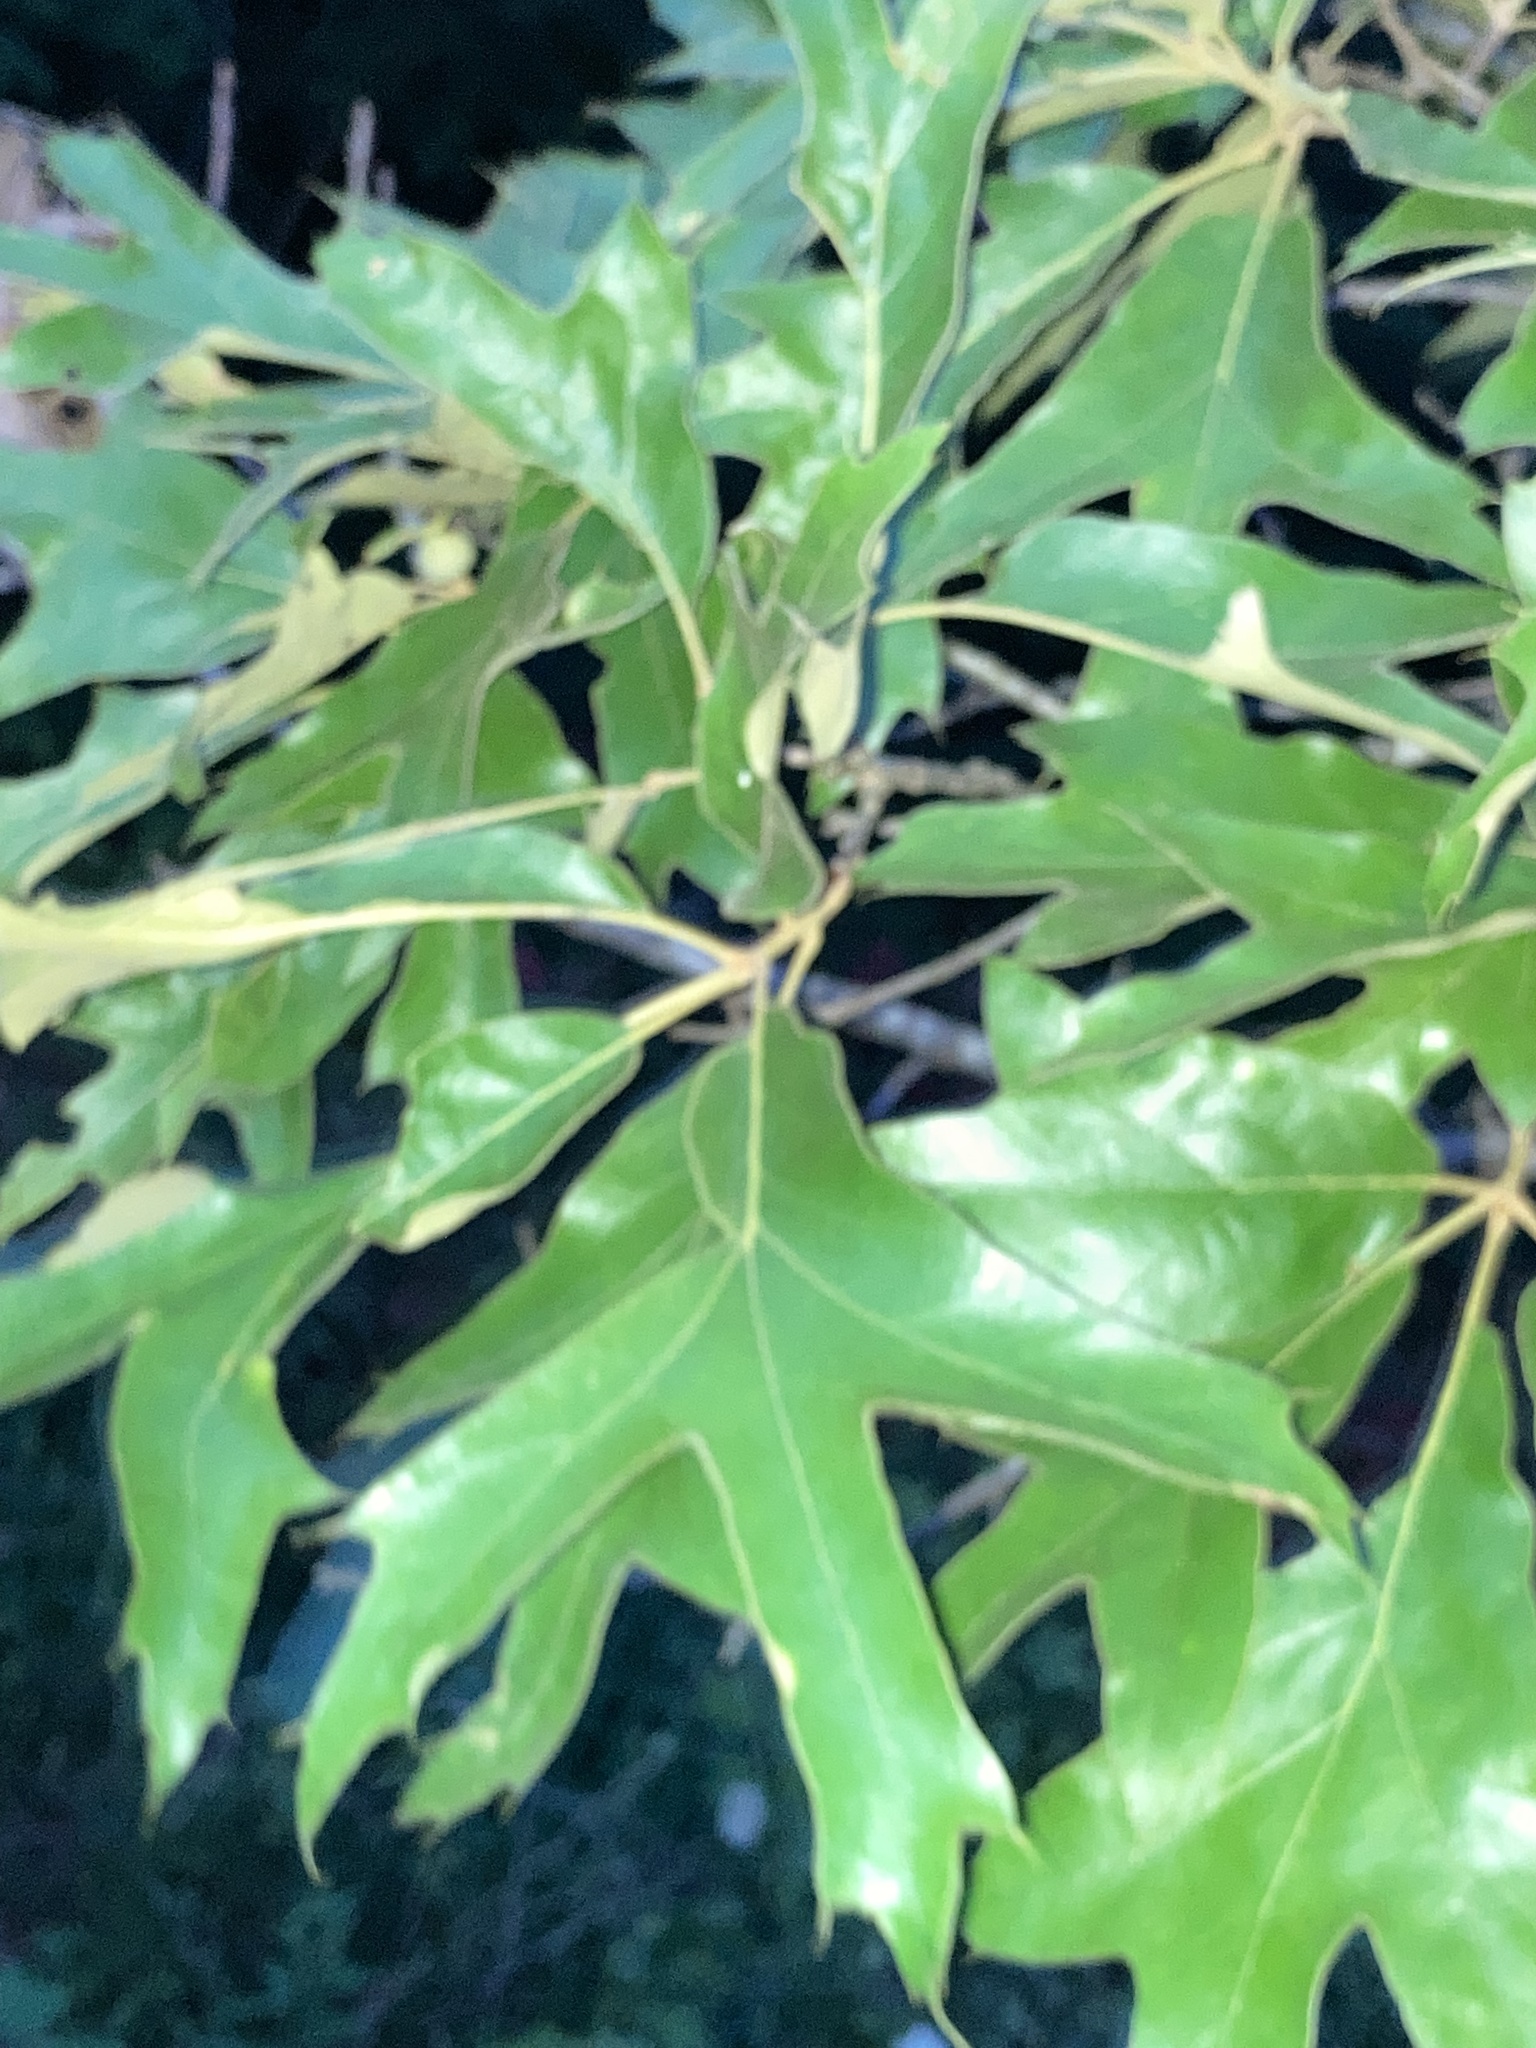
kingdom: Plantae
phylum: Tracheophyta
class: Magnoliopsida
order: Fagales
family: Fagaceae
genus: Quercus
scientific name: Quercus falcata
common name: Southern red oak
